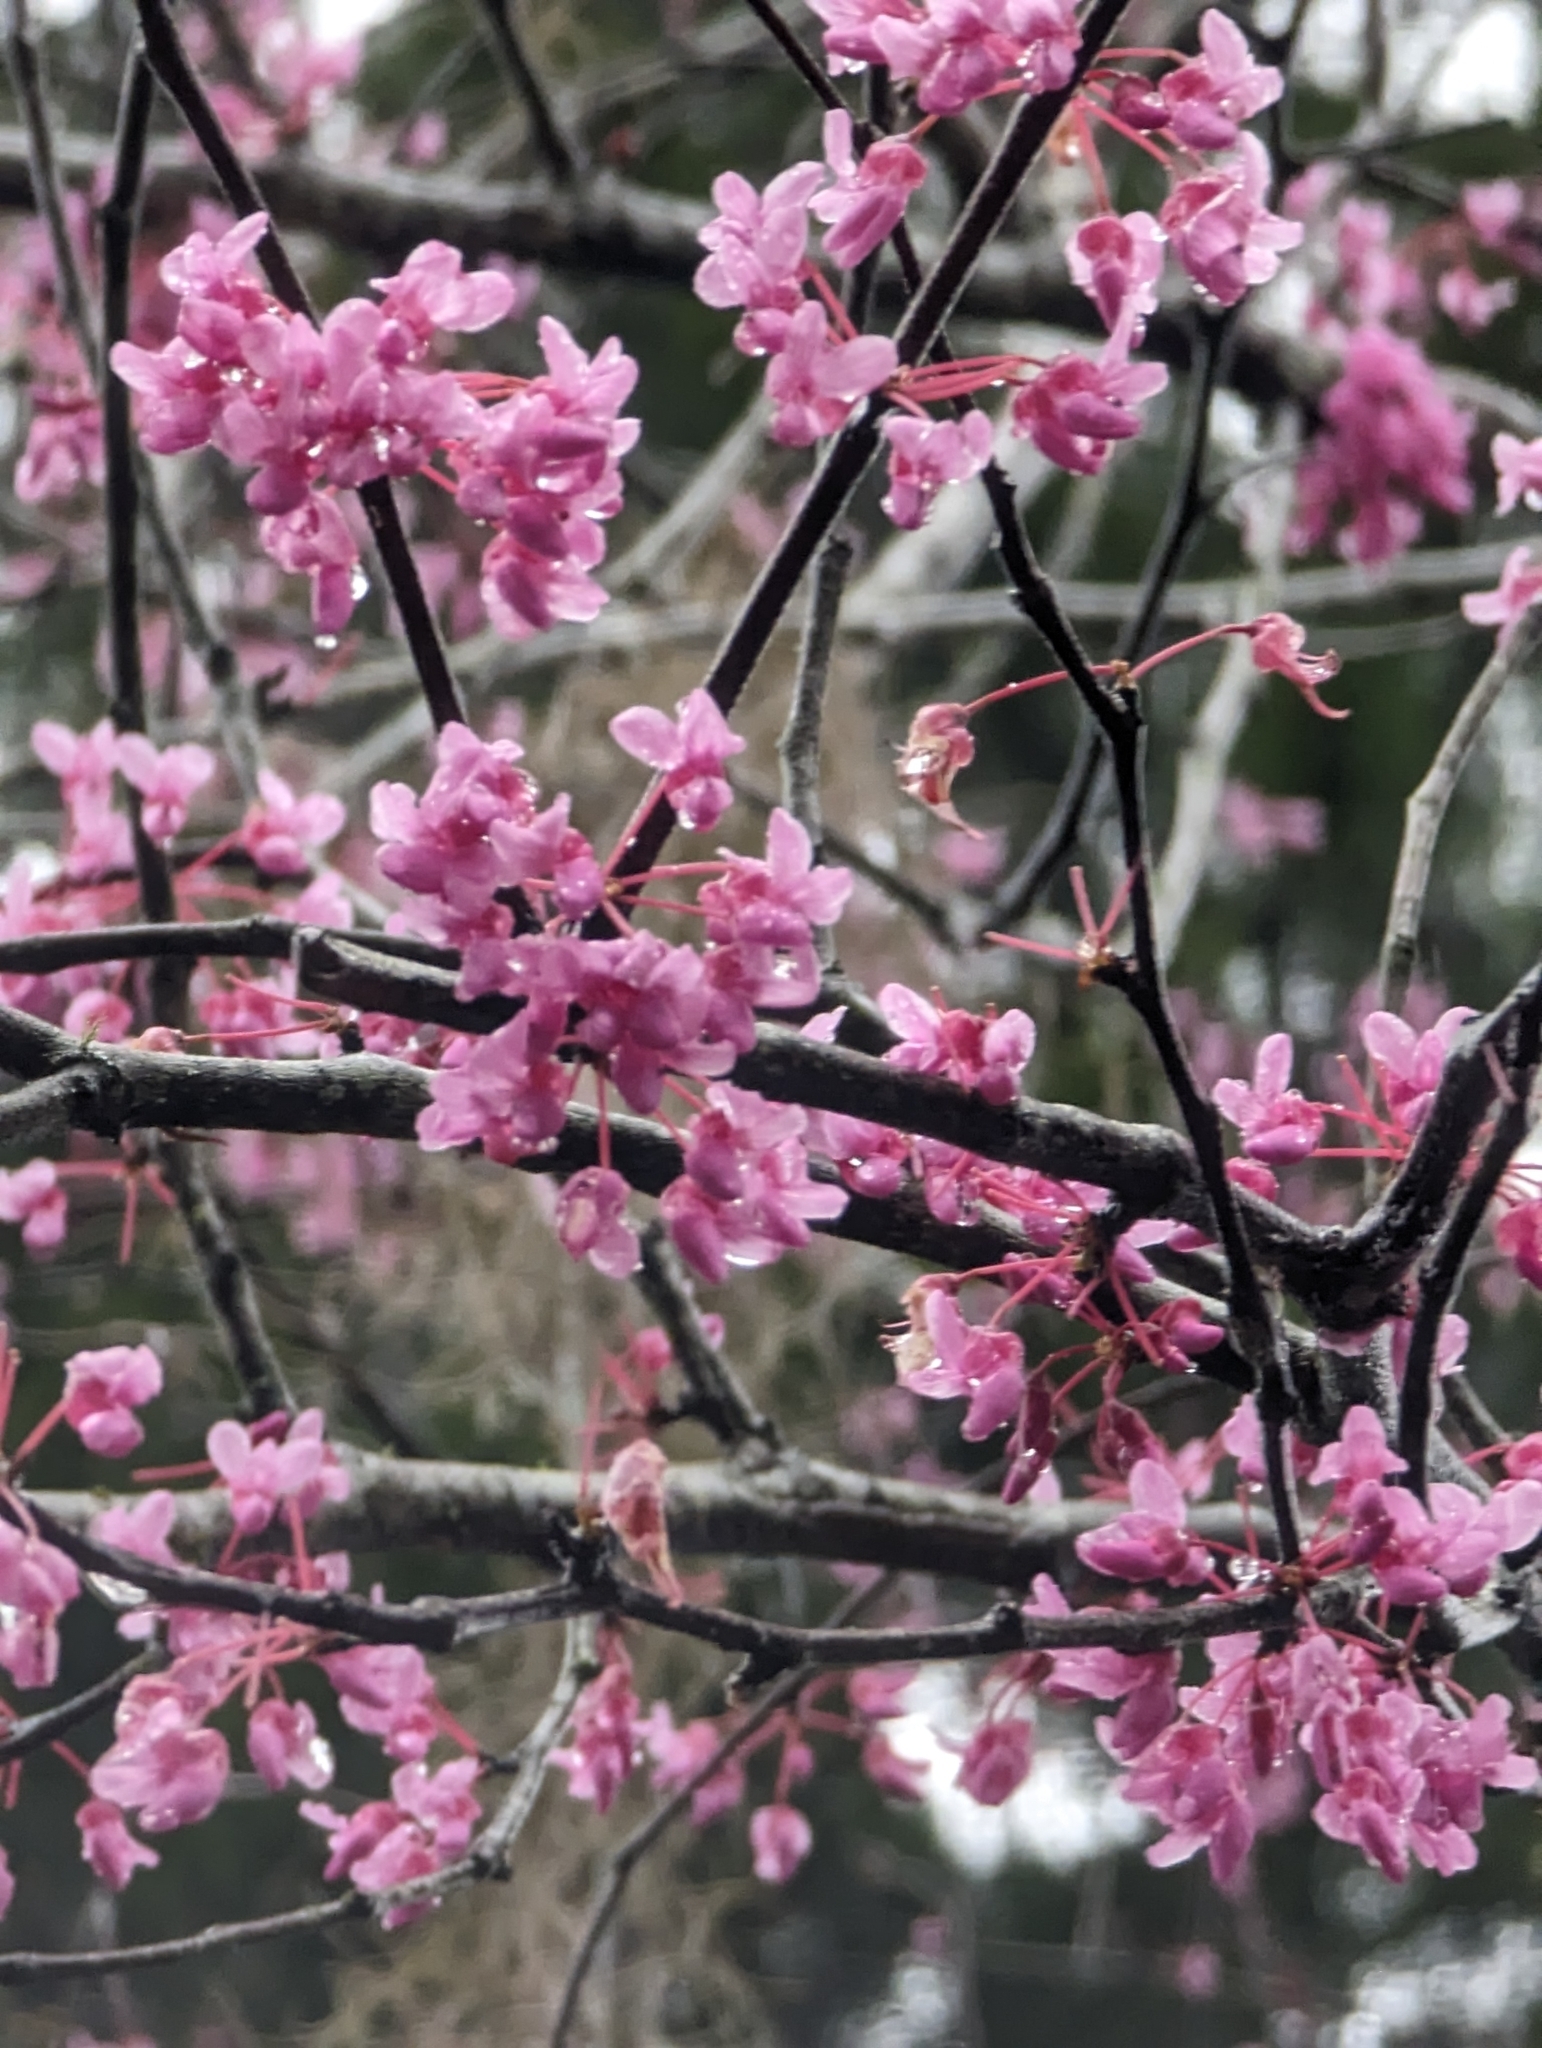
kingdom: Plantae
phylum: Tracheophyta
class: Magnoliopsida
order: Fabales
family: Fabaceae
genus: Cercis
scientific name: Cercis canadensis
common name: Eastern redbud
